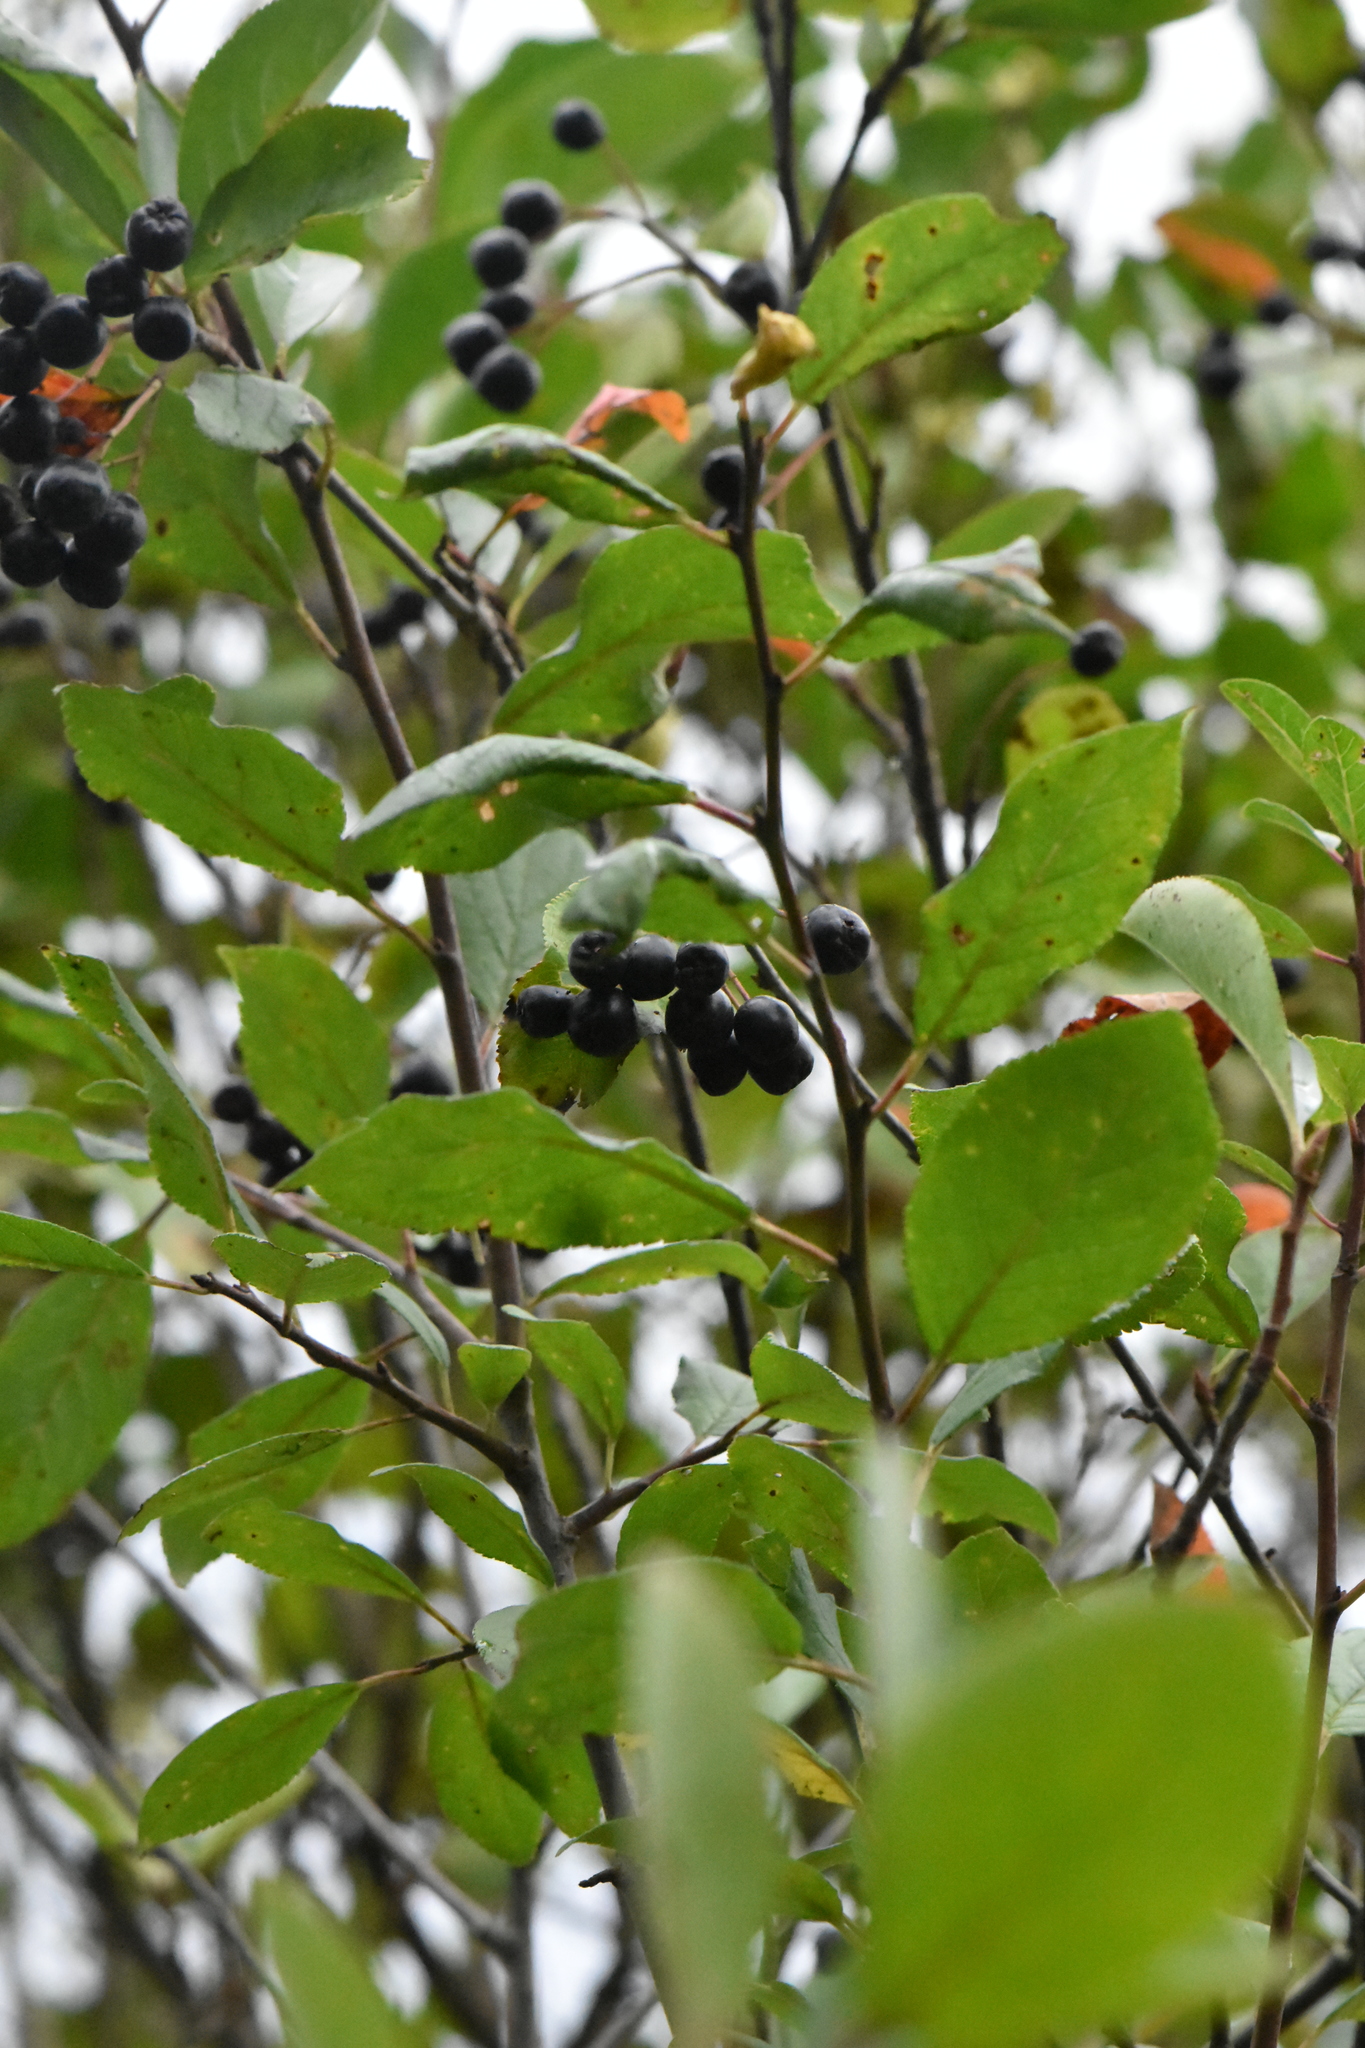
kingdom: Plantae
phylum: Tracheophyta
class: Magnoliopsida
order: Rosales
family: Rosaceae
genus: Sorbaronia
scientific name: Sorbaronia arsenii
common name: Arsène's mountain-ash
